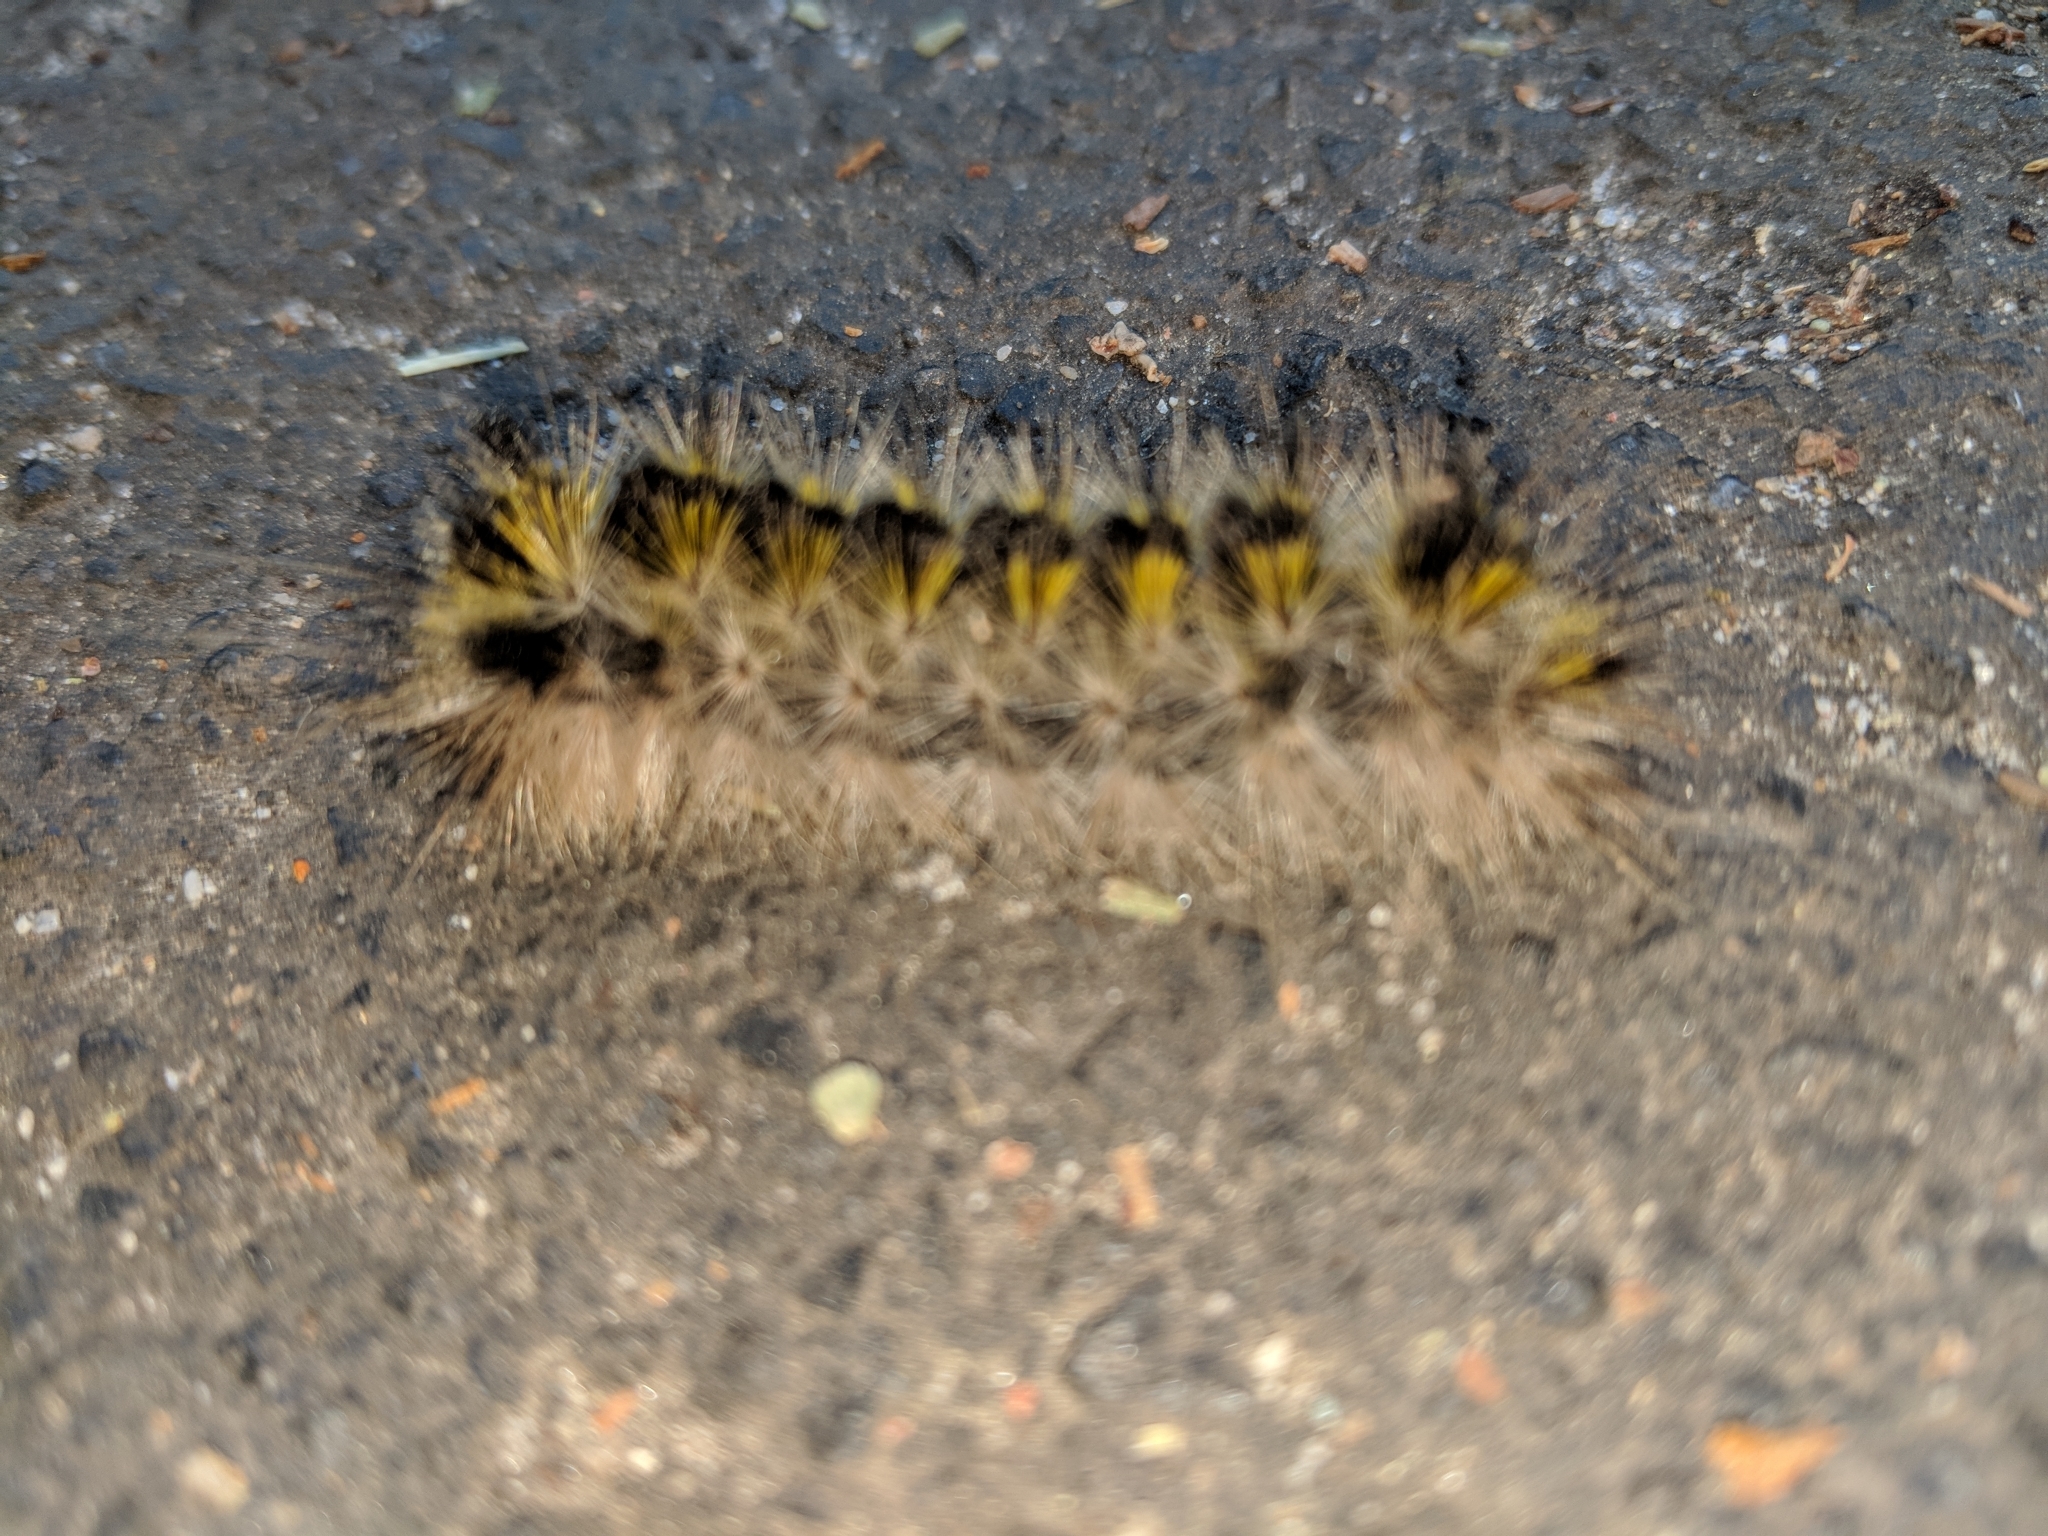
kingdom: Animalia
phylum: Arthropoda
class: Insecta
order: Lepidoptera
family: Erebidae
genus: Lophocampa
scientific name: Lophocampa argentata
